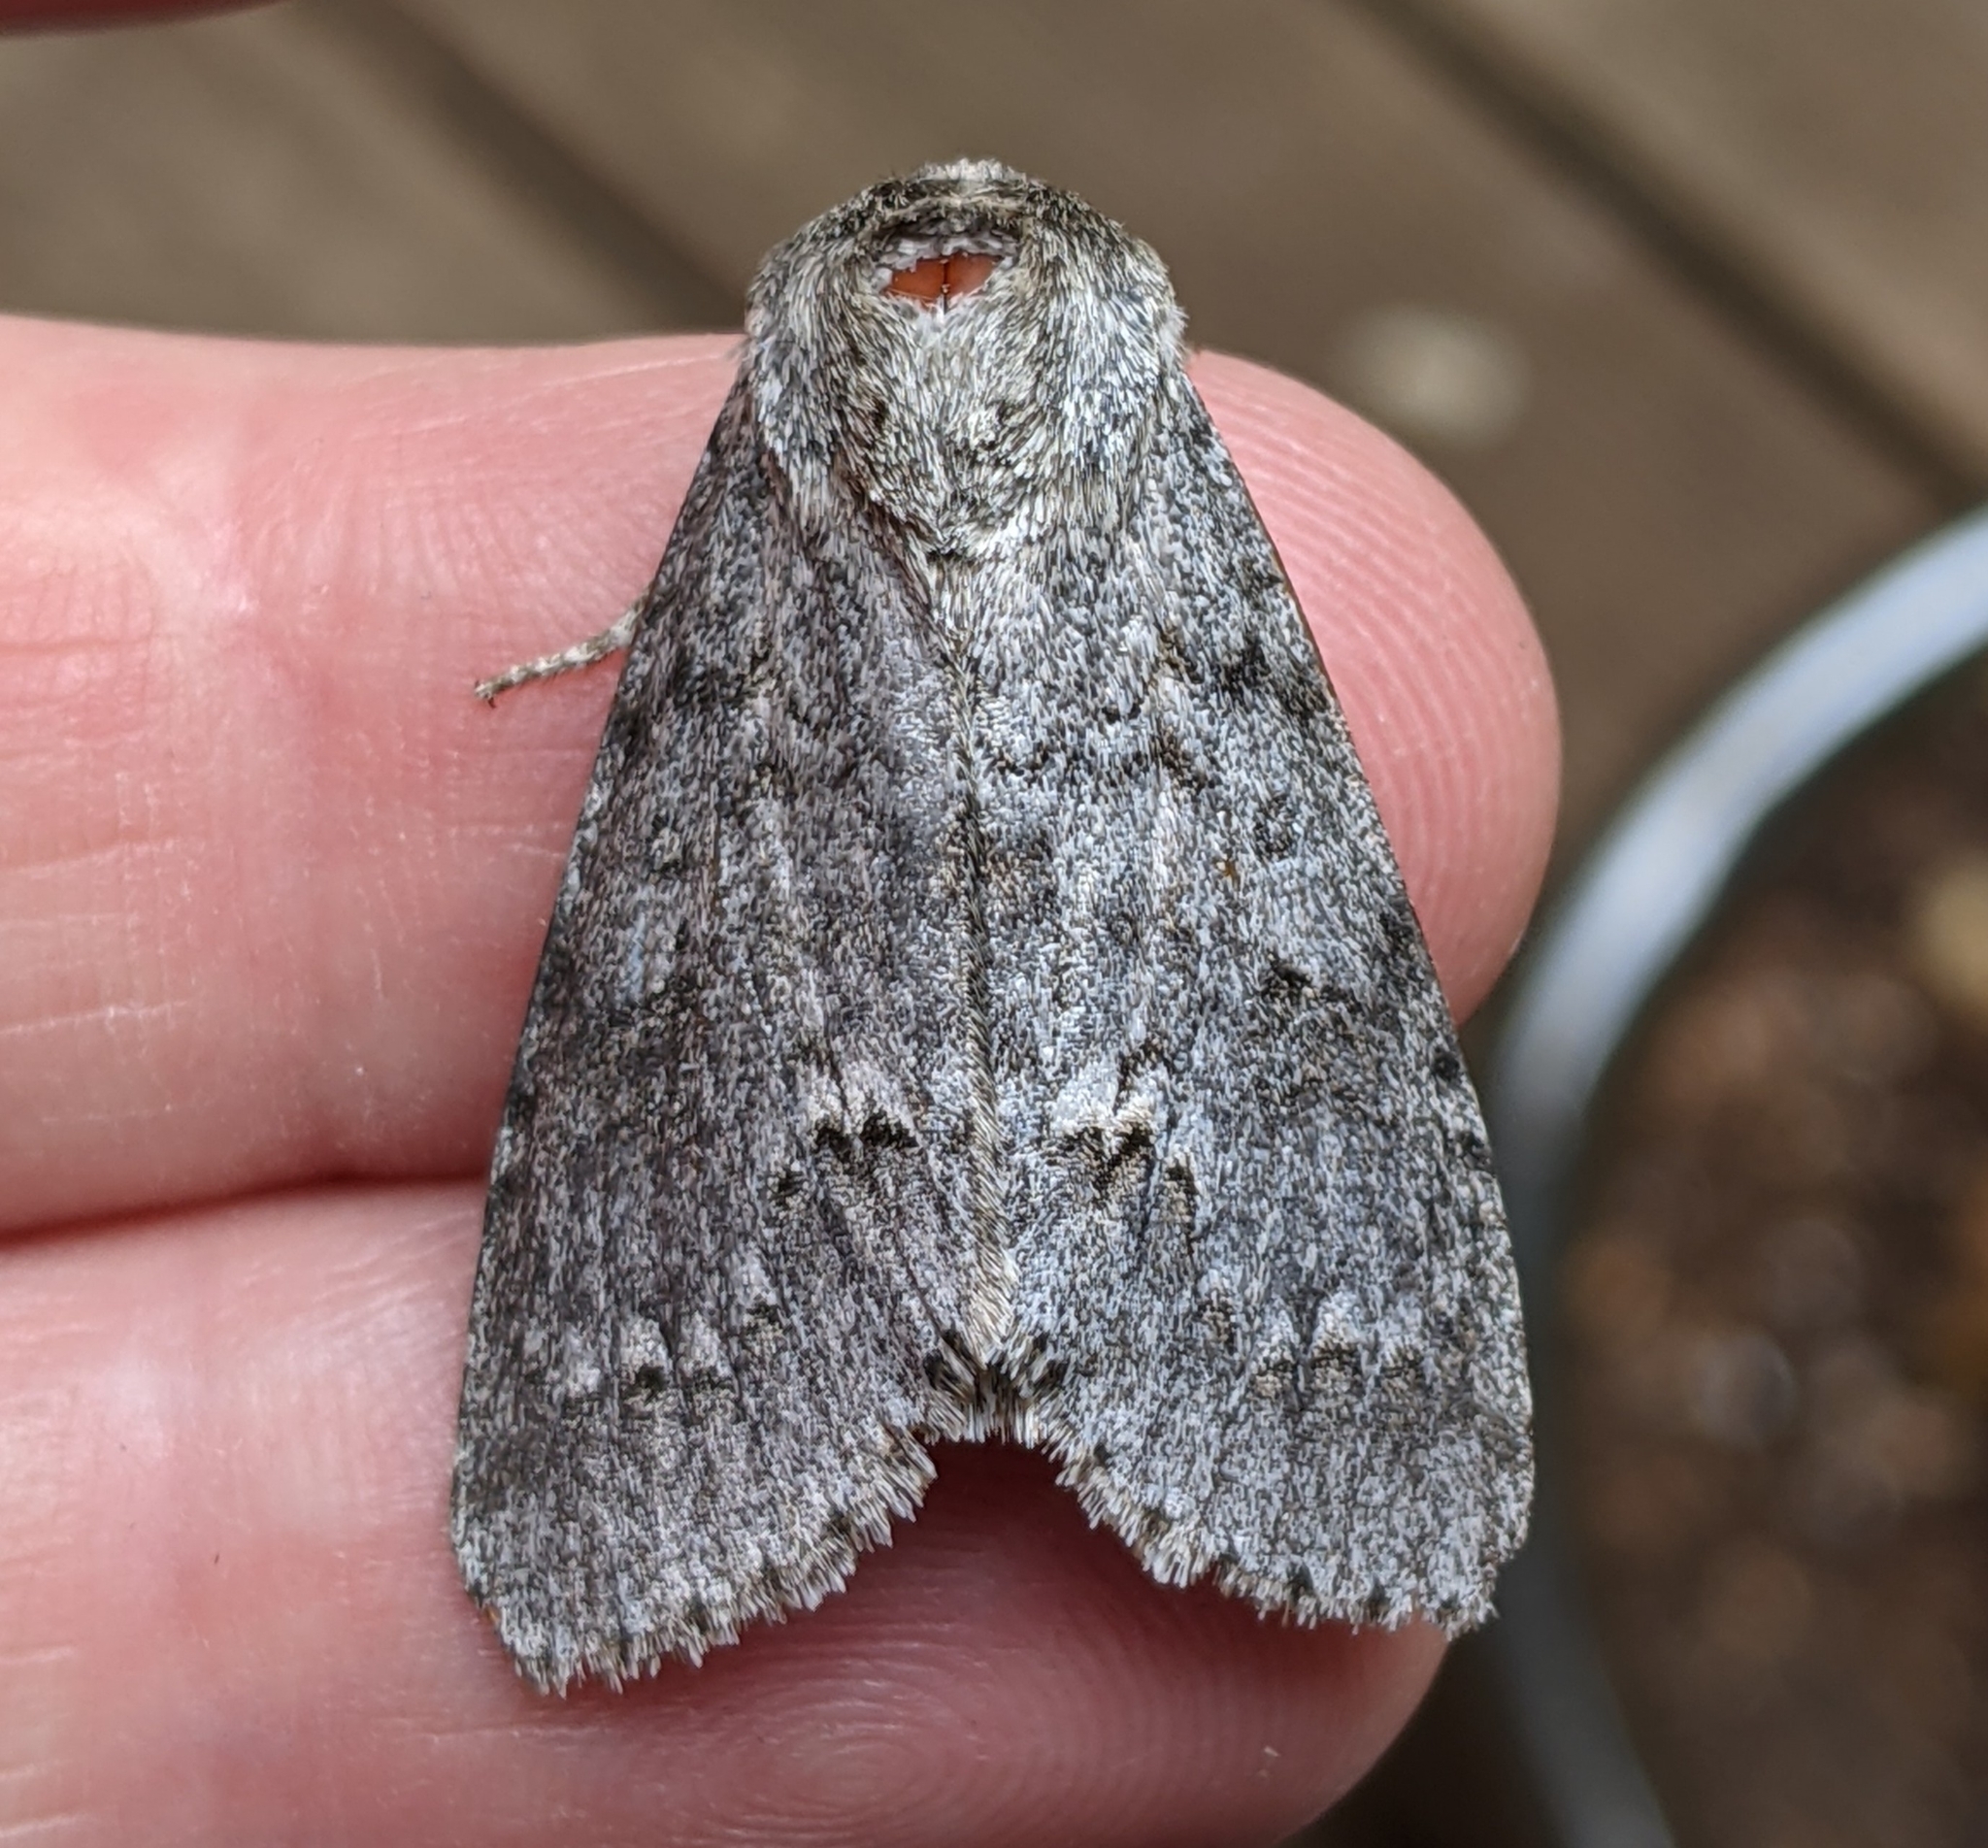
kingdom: Animalia
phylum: Arthropoda
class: Insecta
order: Lepidoptera
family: Noctuidae
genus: Acronicta
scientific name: Acronicta insita
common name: Large gray dagger
